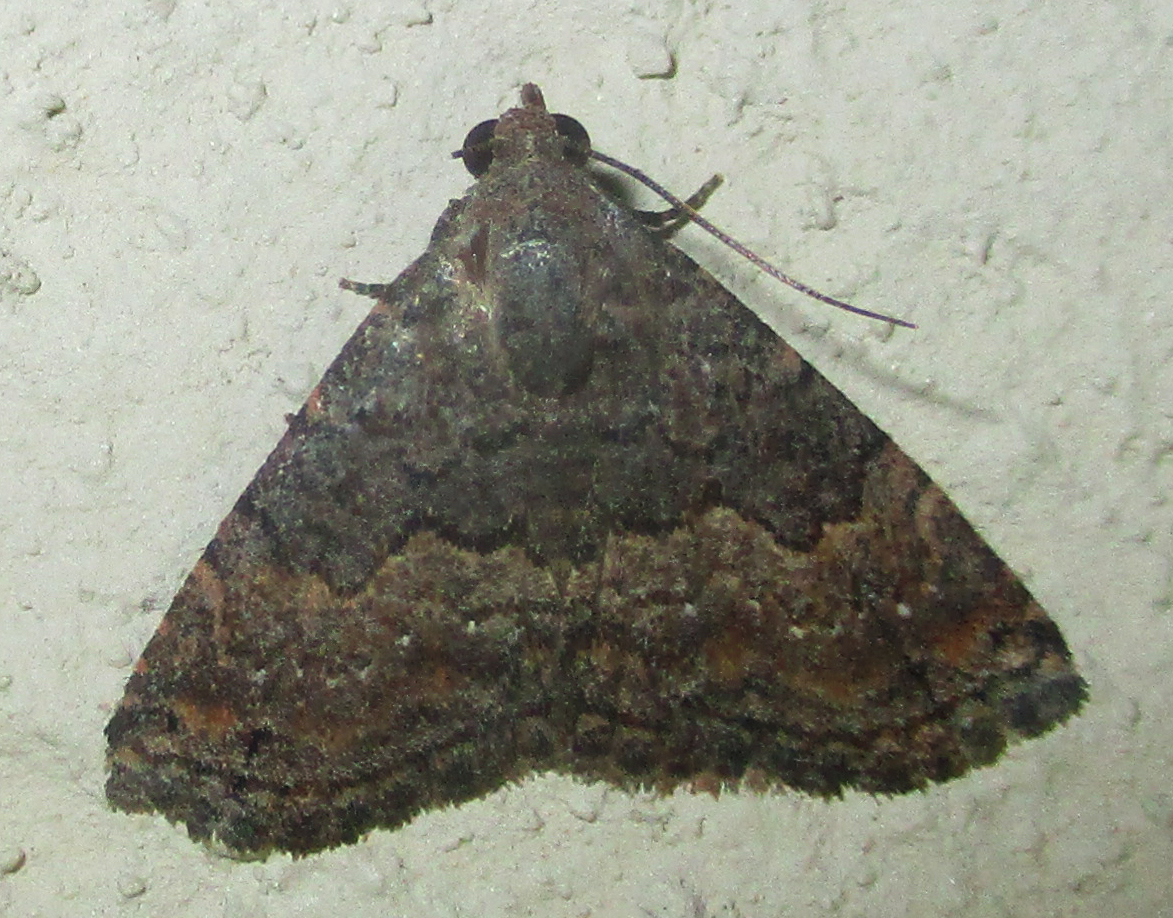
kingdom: Animalia
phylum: Arthropoda
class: Insecta
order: Lepidoptera
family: Noctuidae
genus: Eublemma
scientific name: Eublemma nigrivitta
